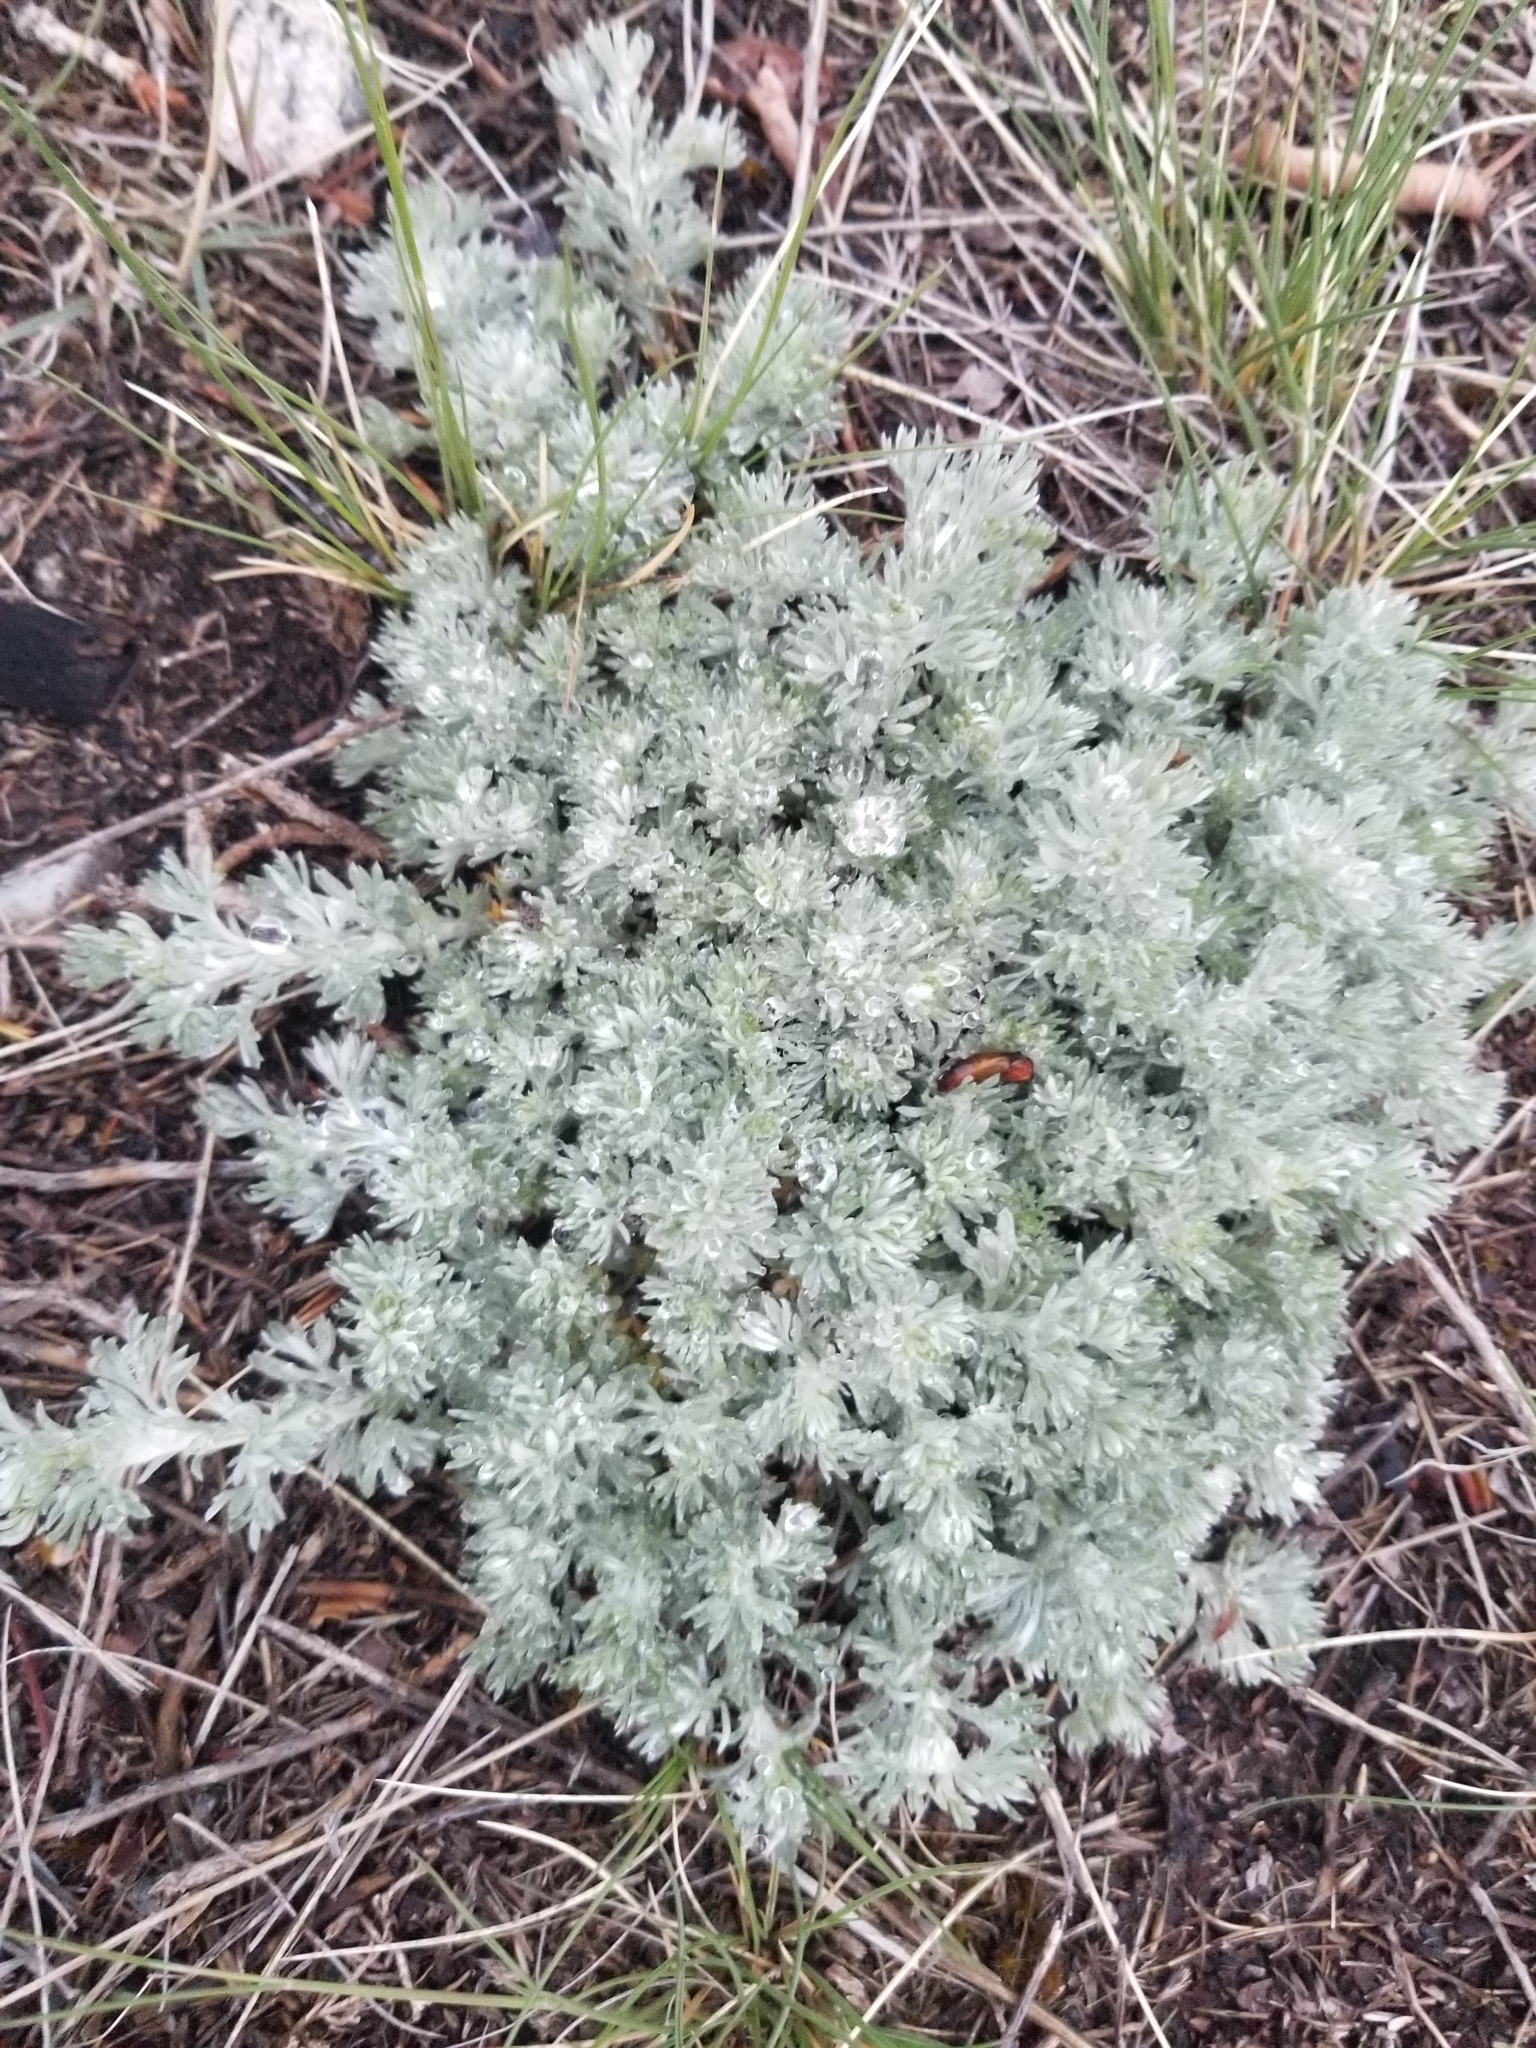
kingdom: Plantae
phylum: Tracheophyta
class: Magnoliopsida
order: Asterales
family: Asteraceae
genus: Artemisia
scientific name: Artemisia frigida
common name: Prairie sagewort
